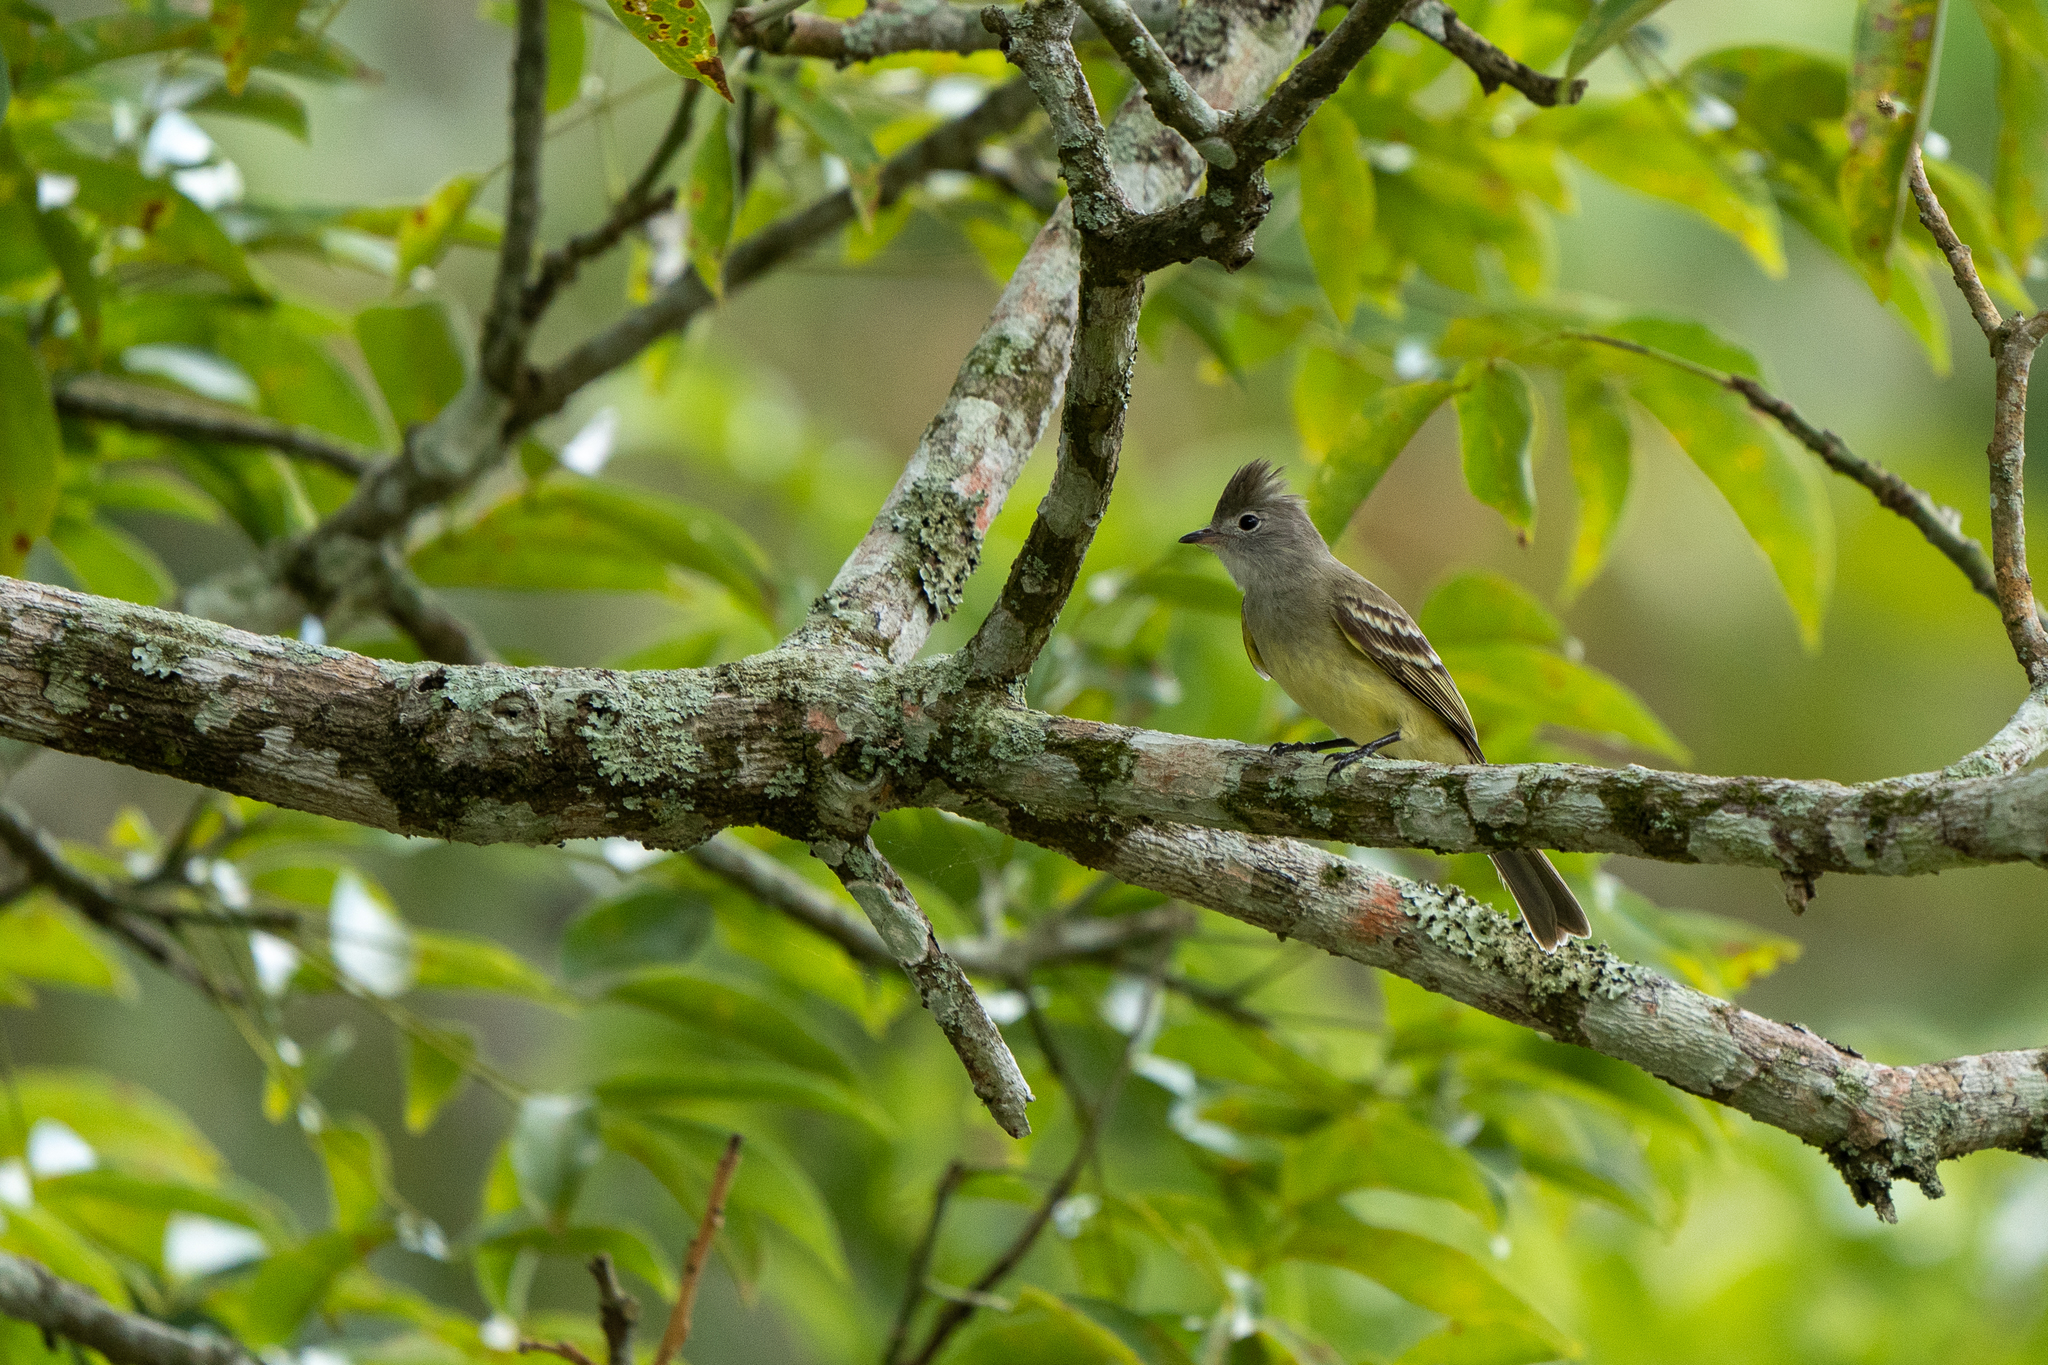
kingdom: Animalia
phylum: Chordata
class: Aves
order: Passeriformes
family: Tyrannidae
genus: Elaenia
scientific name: Elaenia flavogaster
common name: Yellow-bellied elaenia
